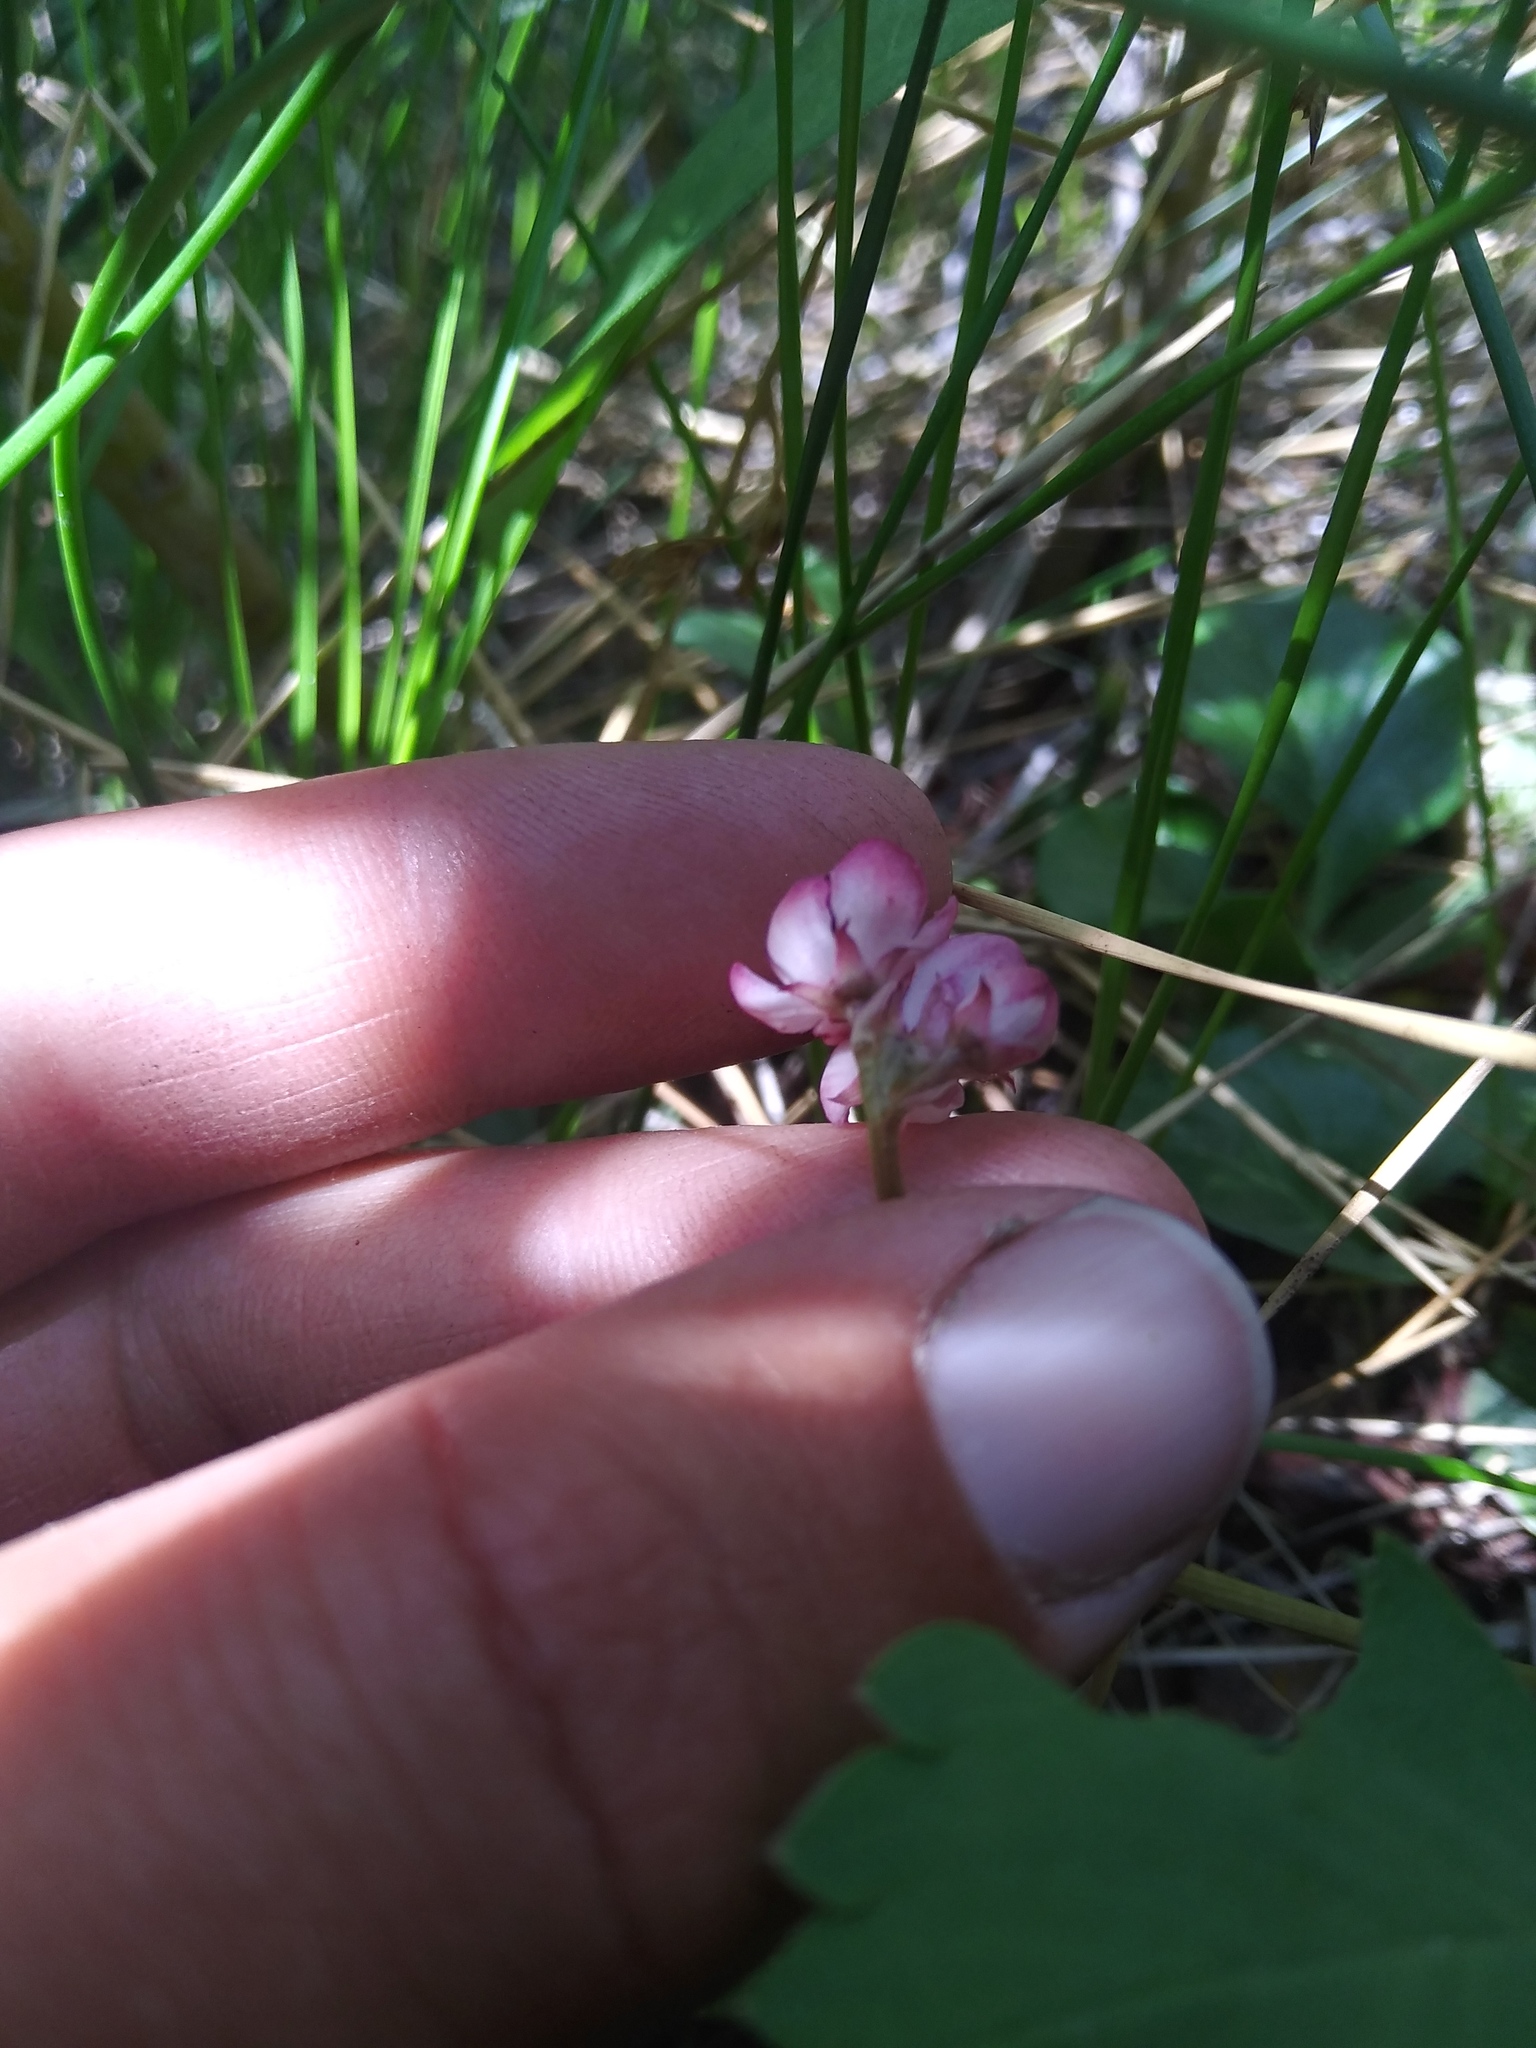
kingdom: Plantae
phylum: Tracheophyta
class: Magnoliopsida
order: Ericales
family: Ericaceae
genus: Pyrola
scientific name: Pyrola asarifolia
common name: Bog wintergreen
